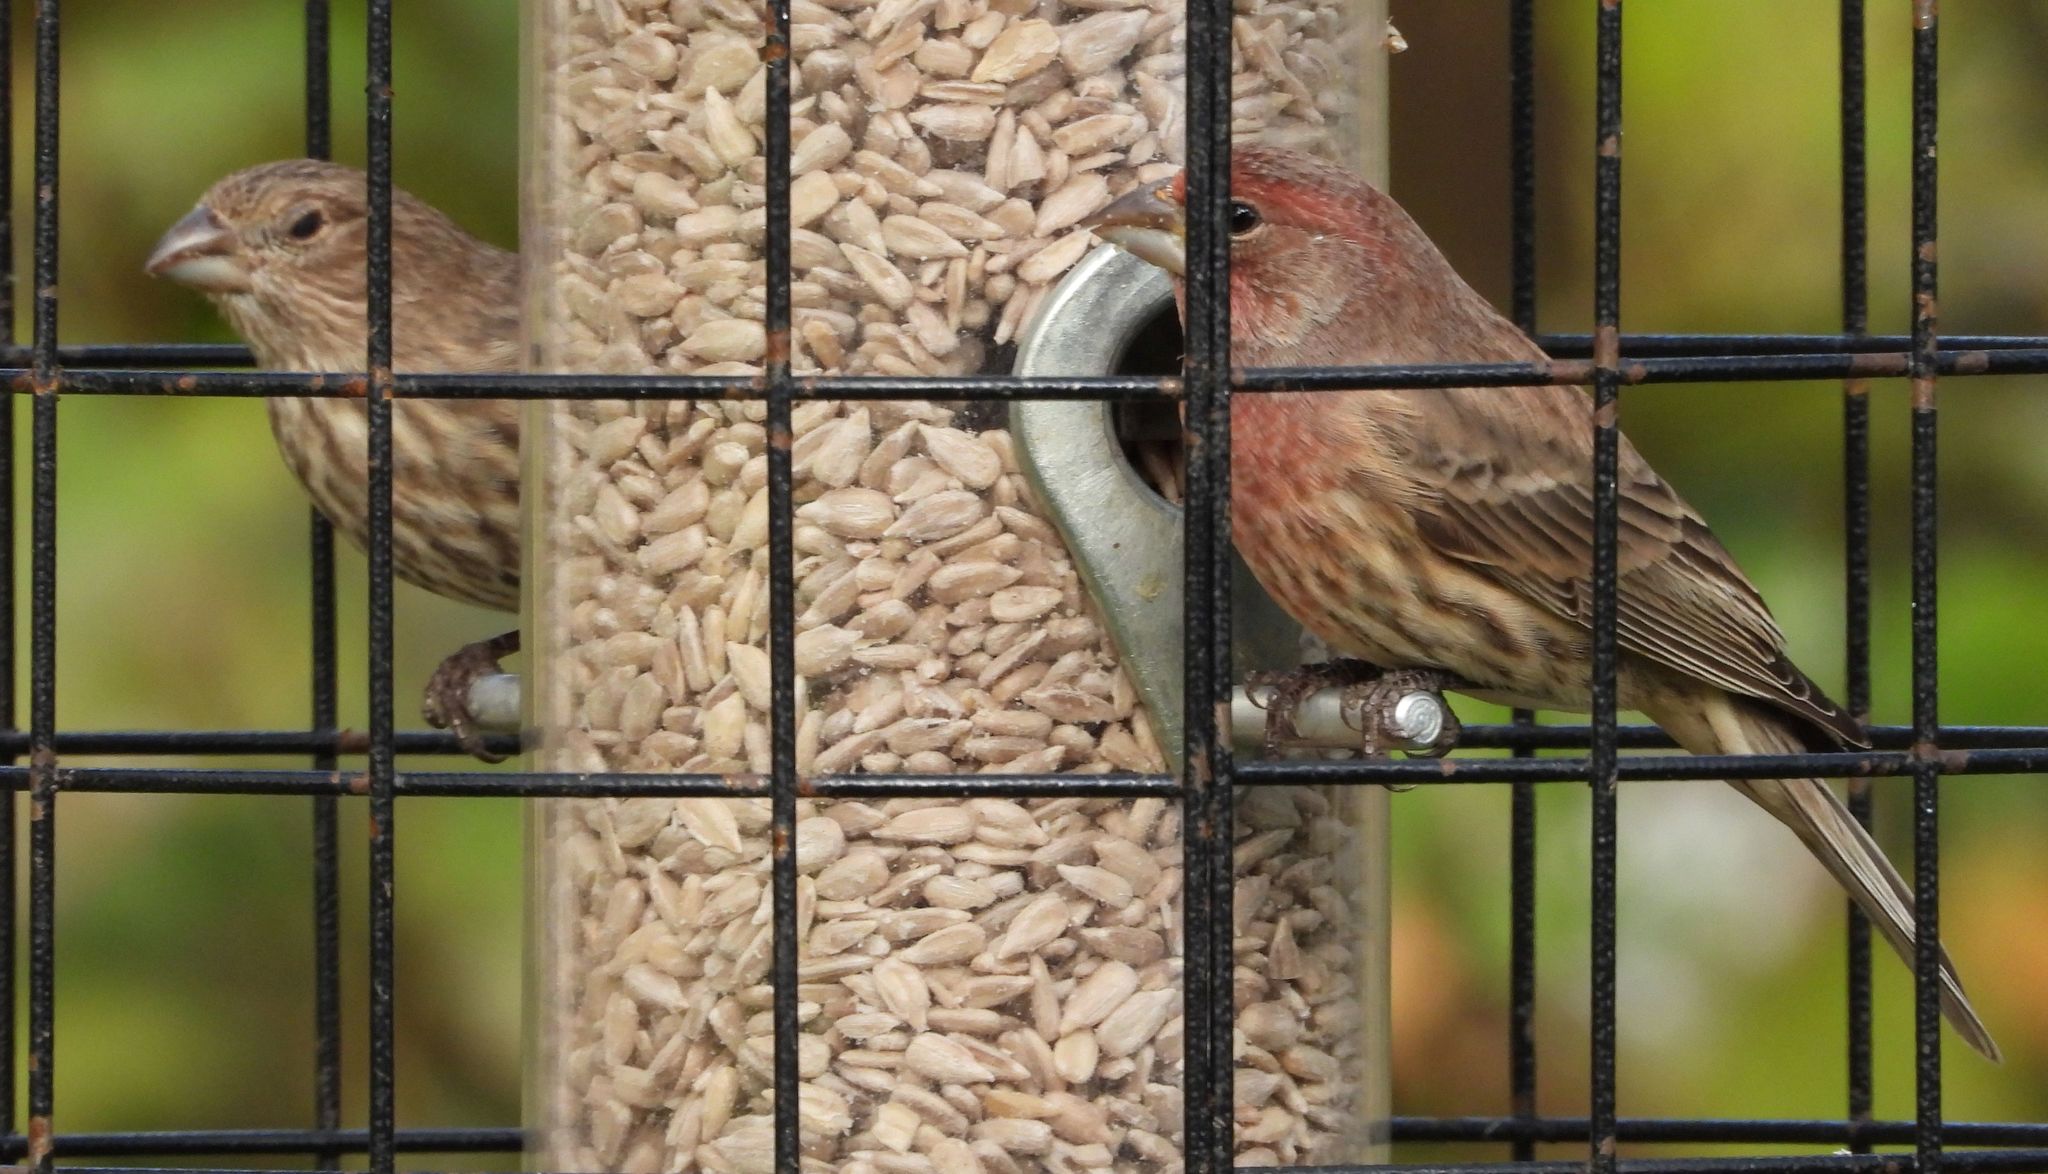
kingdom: Animalia
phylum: Chordata
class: Aves
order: Passeriformes
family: Fringillidae
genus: Haemorhous
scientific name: Haemorhous mexicanus
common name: House finch
